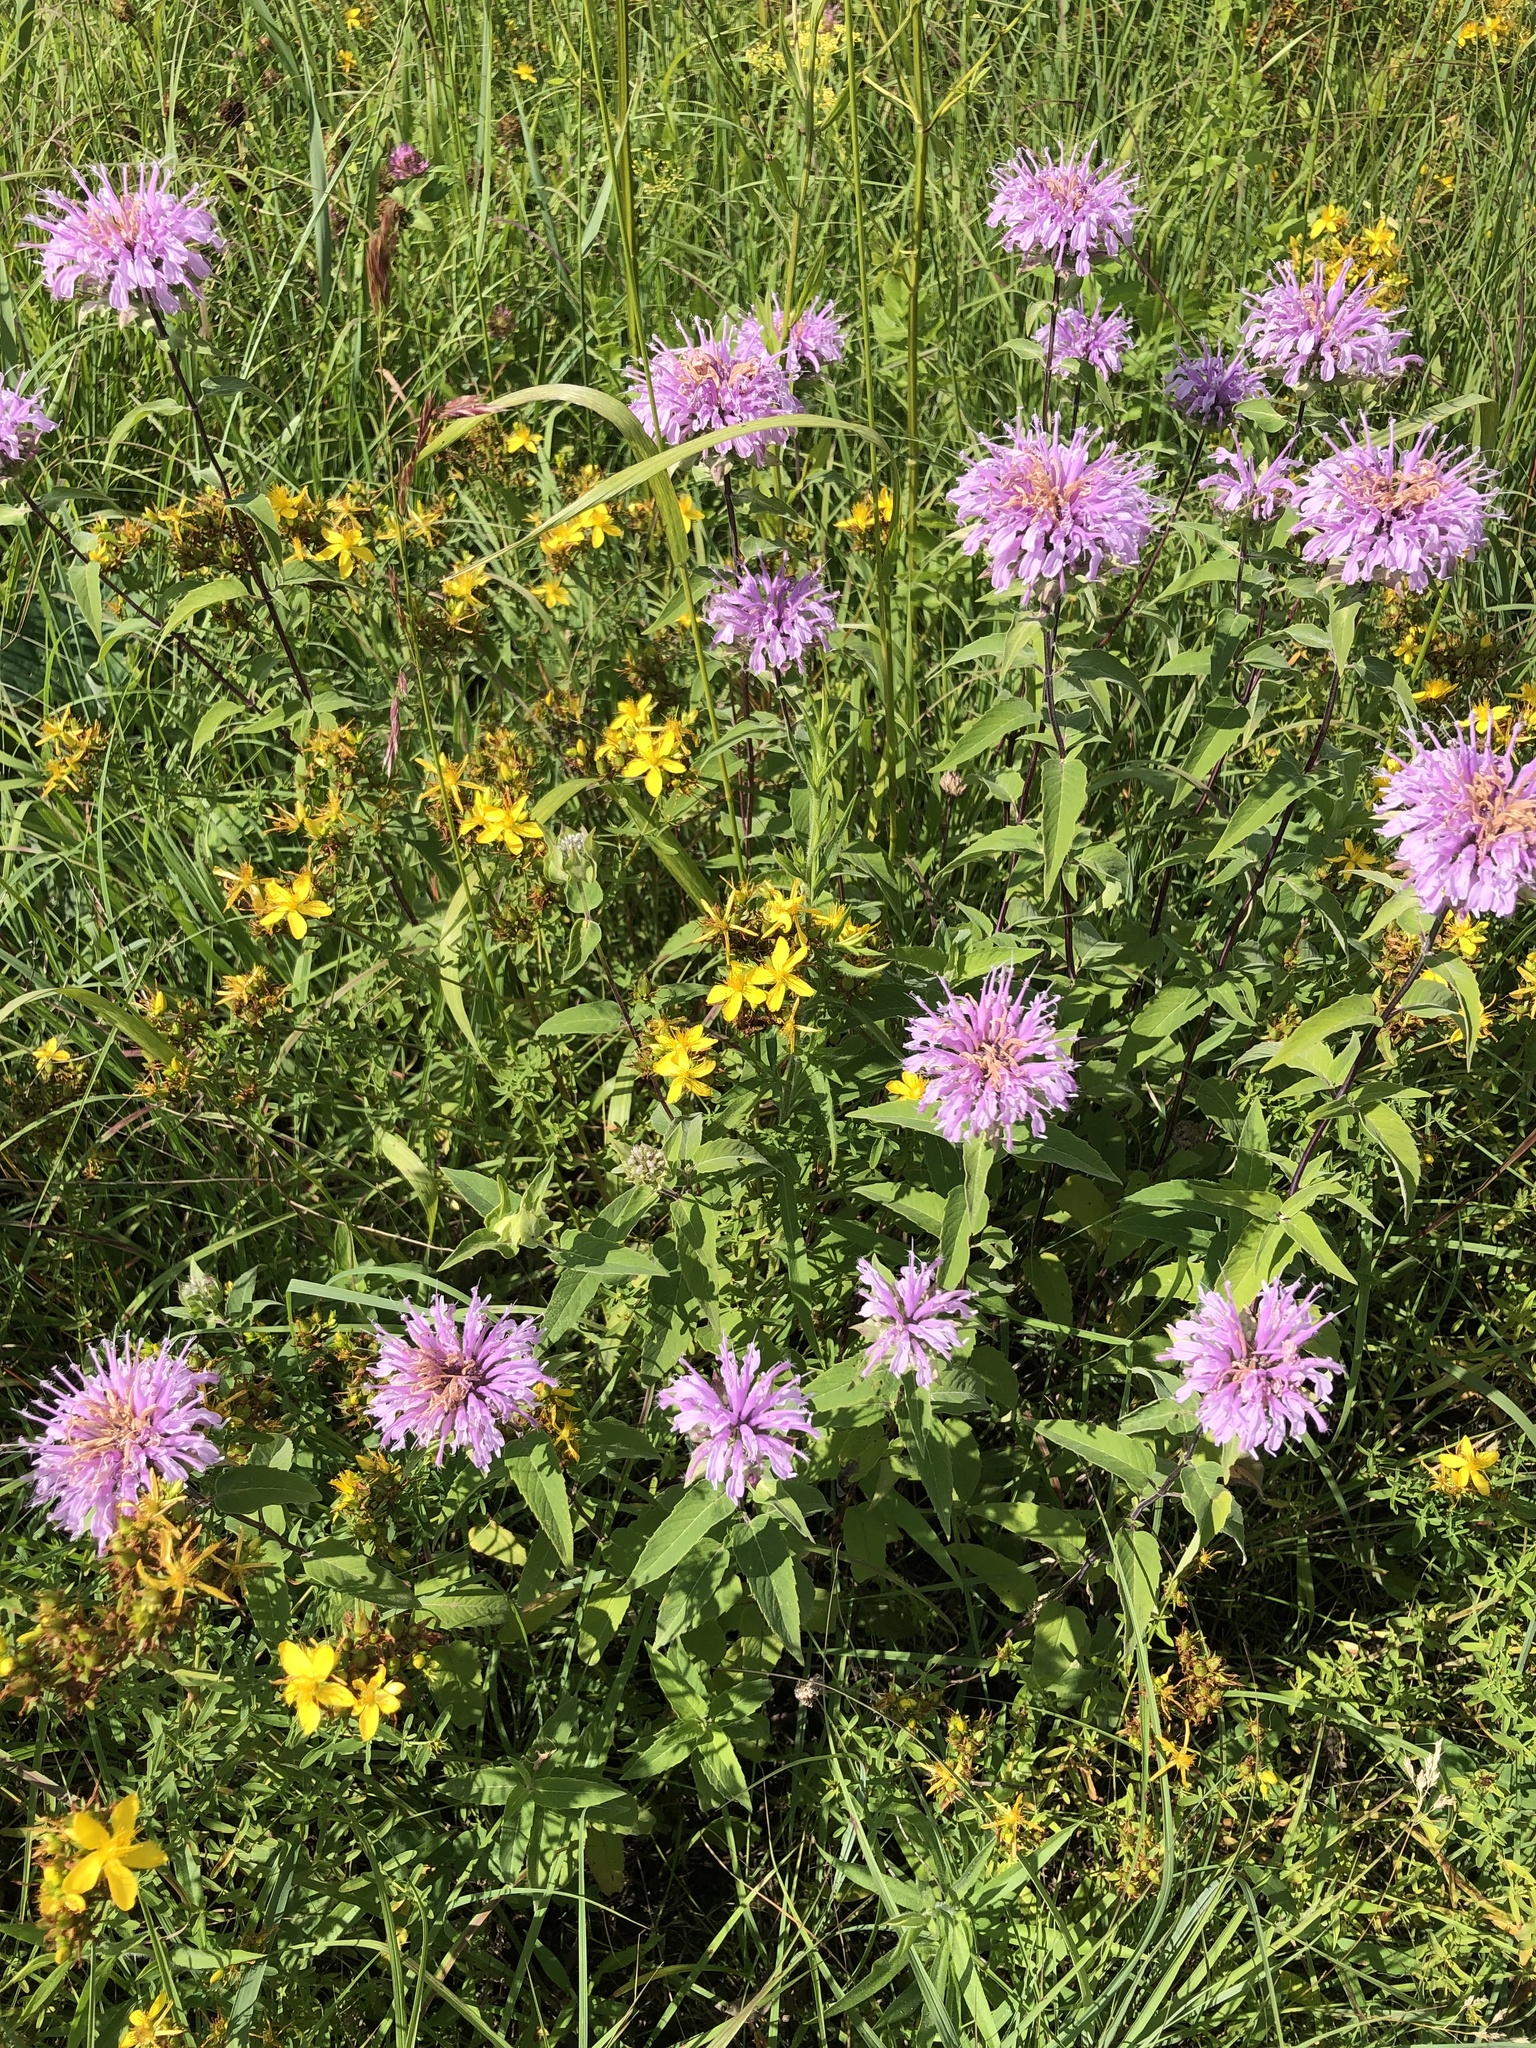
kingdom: Plantae
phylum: Tracheophyta
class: Magnoliopsida
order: Lamiales
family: Lamiaceae
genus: Monarda
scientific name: Monarda fistulosa
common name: Purple beebalm
